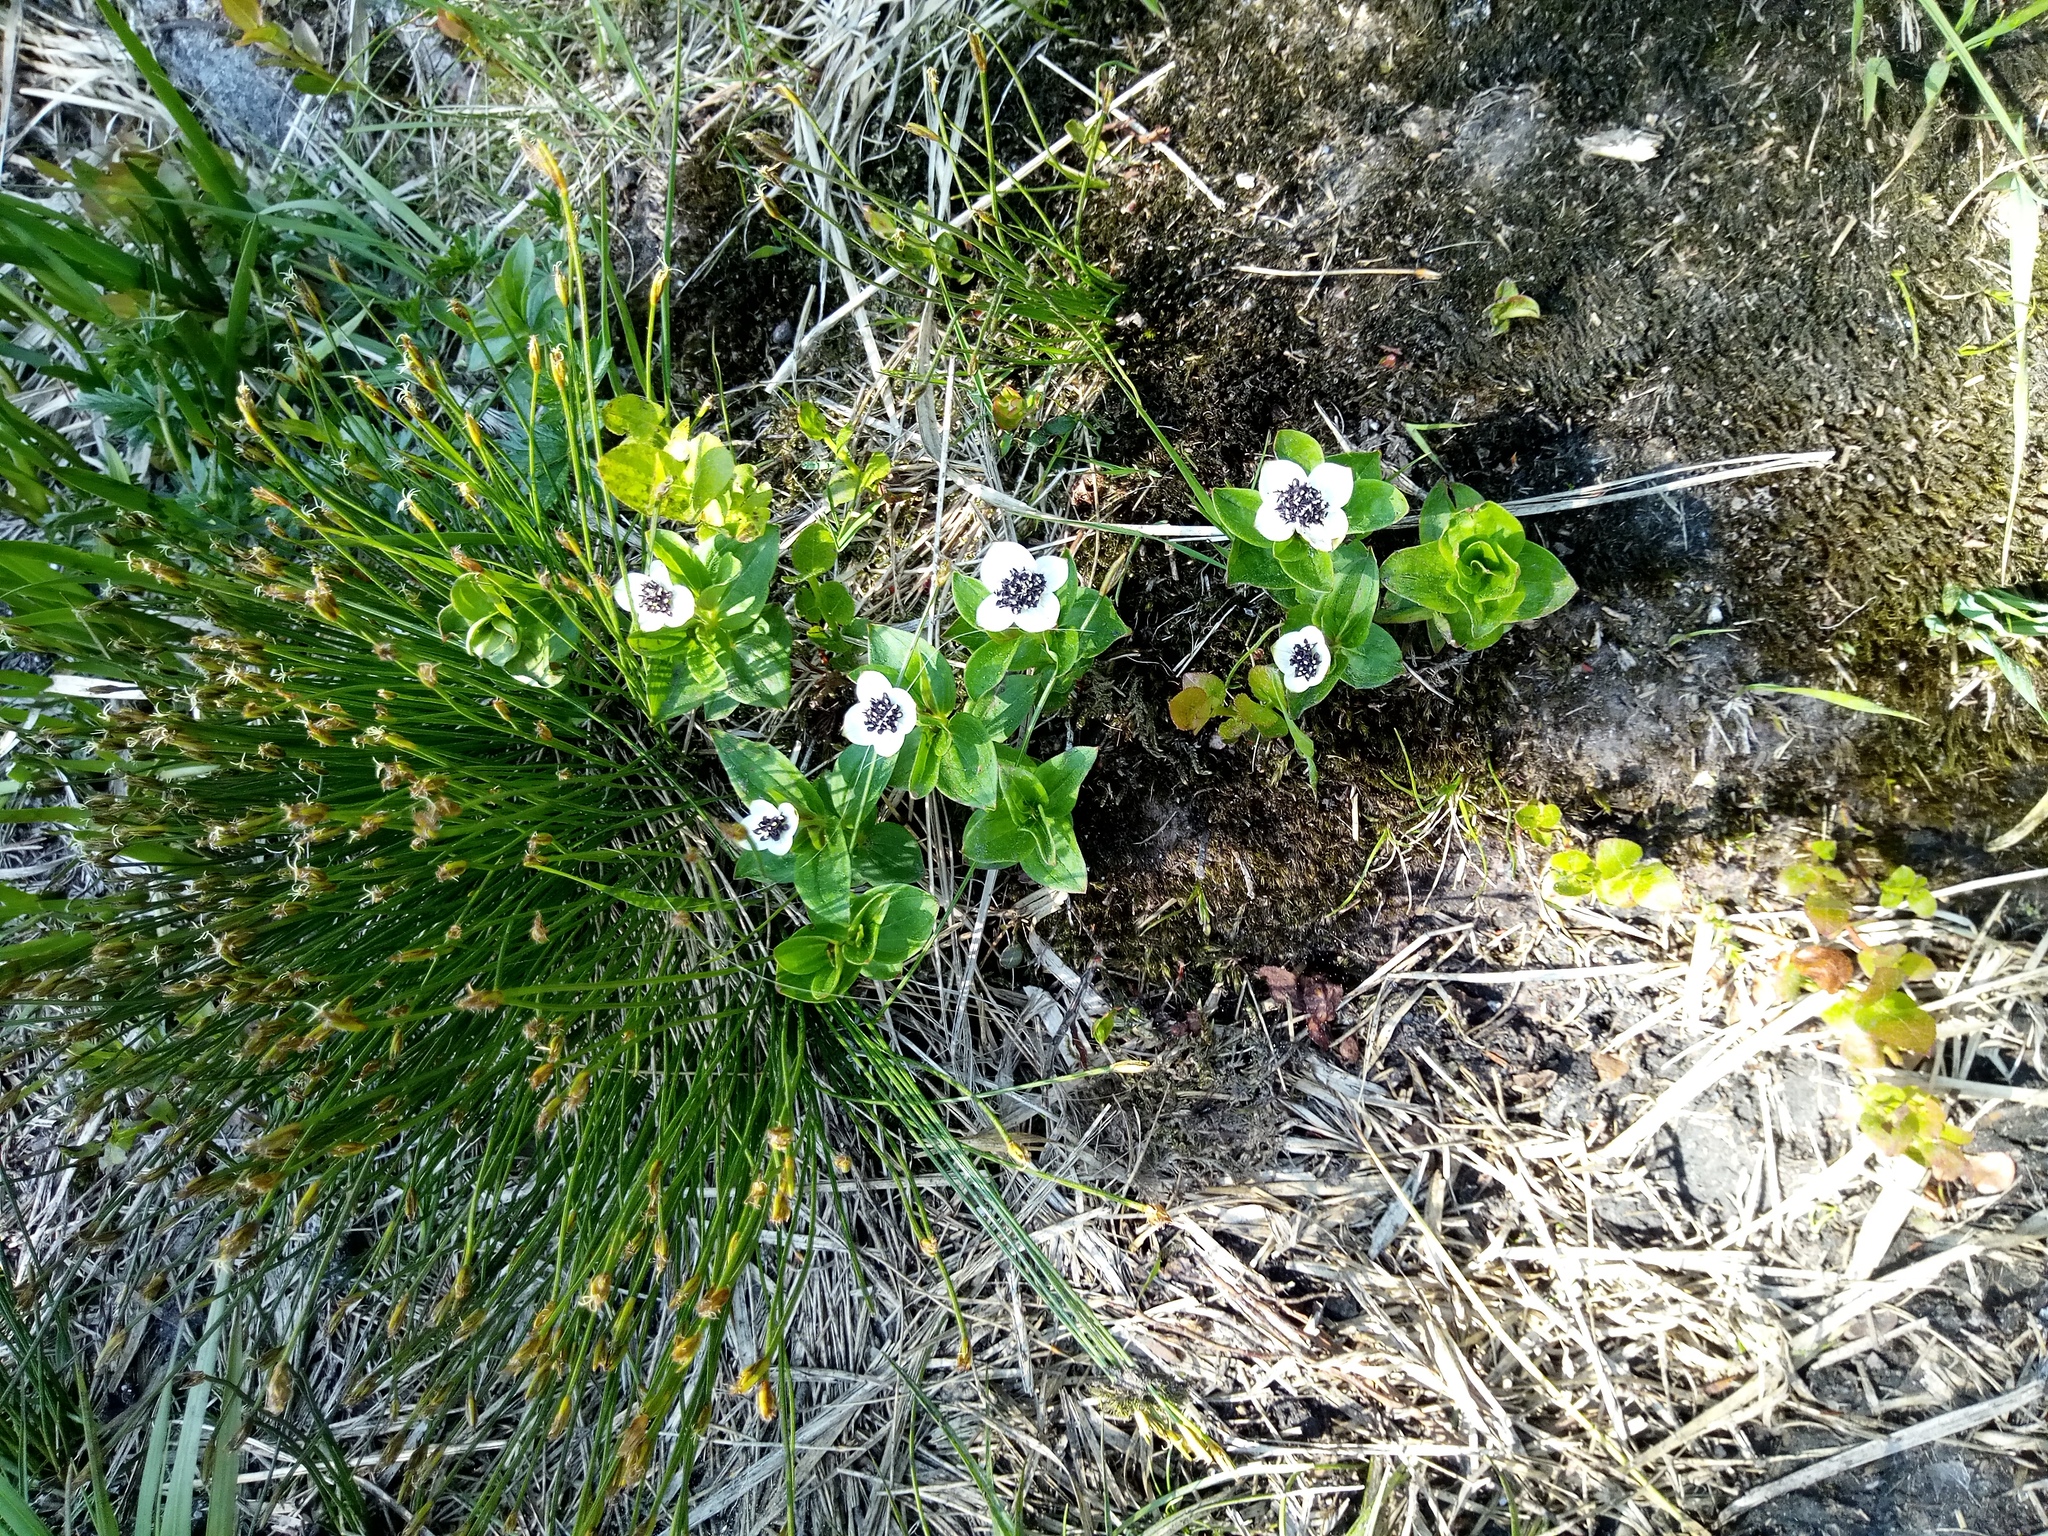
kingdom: Plantae
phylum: Tracheophyta
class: Magnoliopsida
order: Cornales
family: Cornaceae
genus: Cornus
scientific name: Cornus suecica
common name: Dwarf cornel
